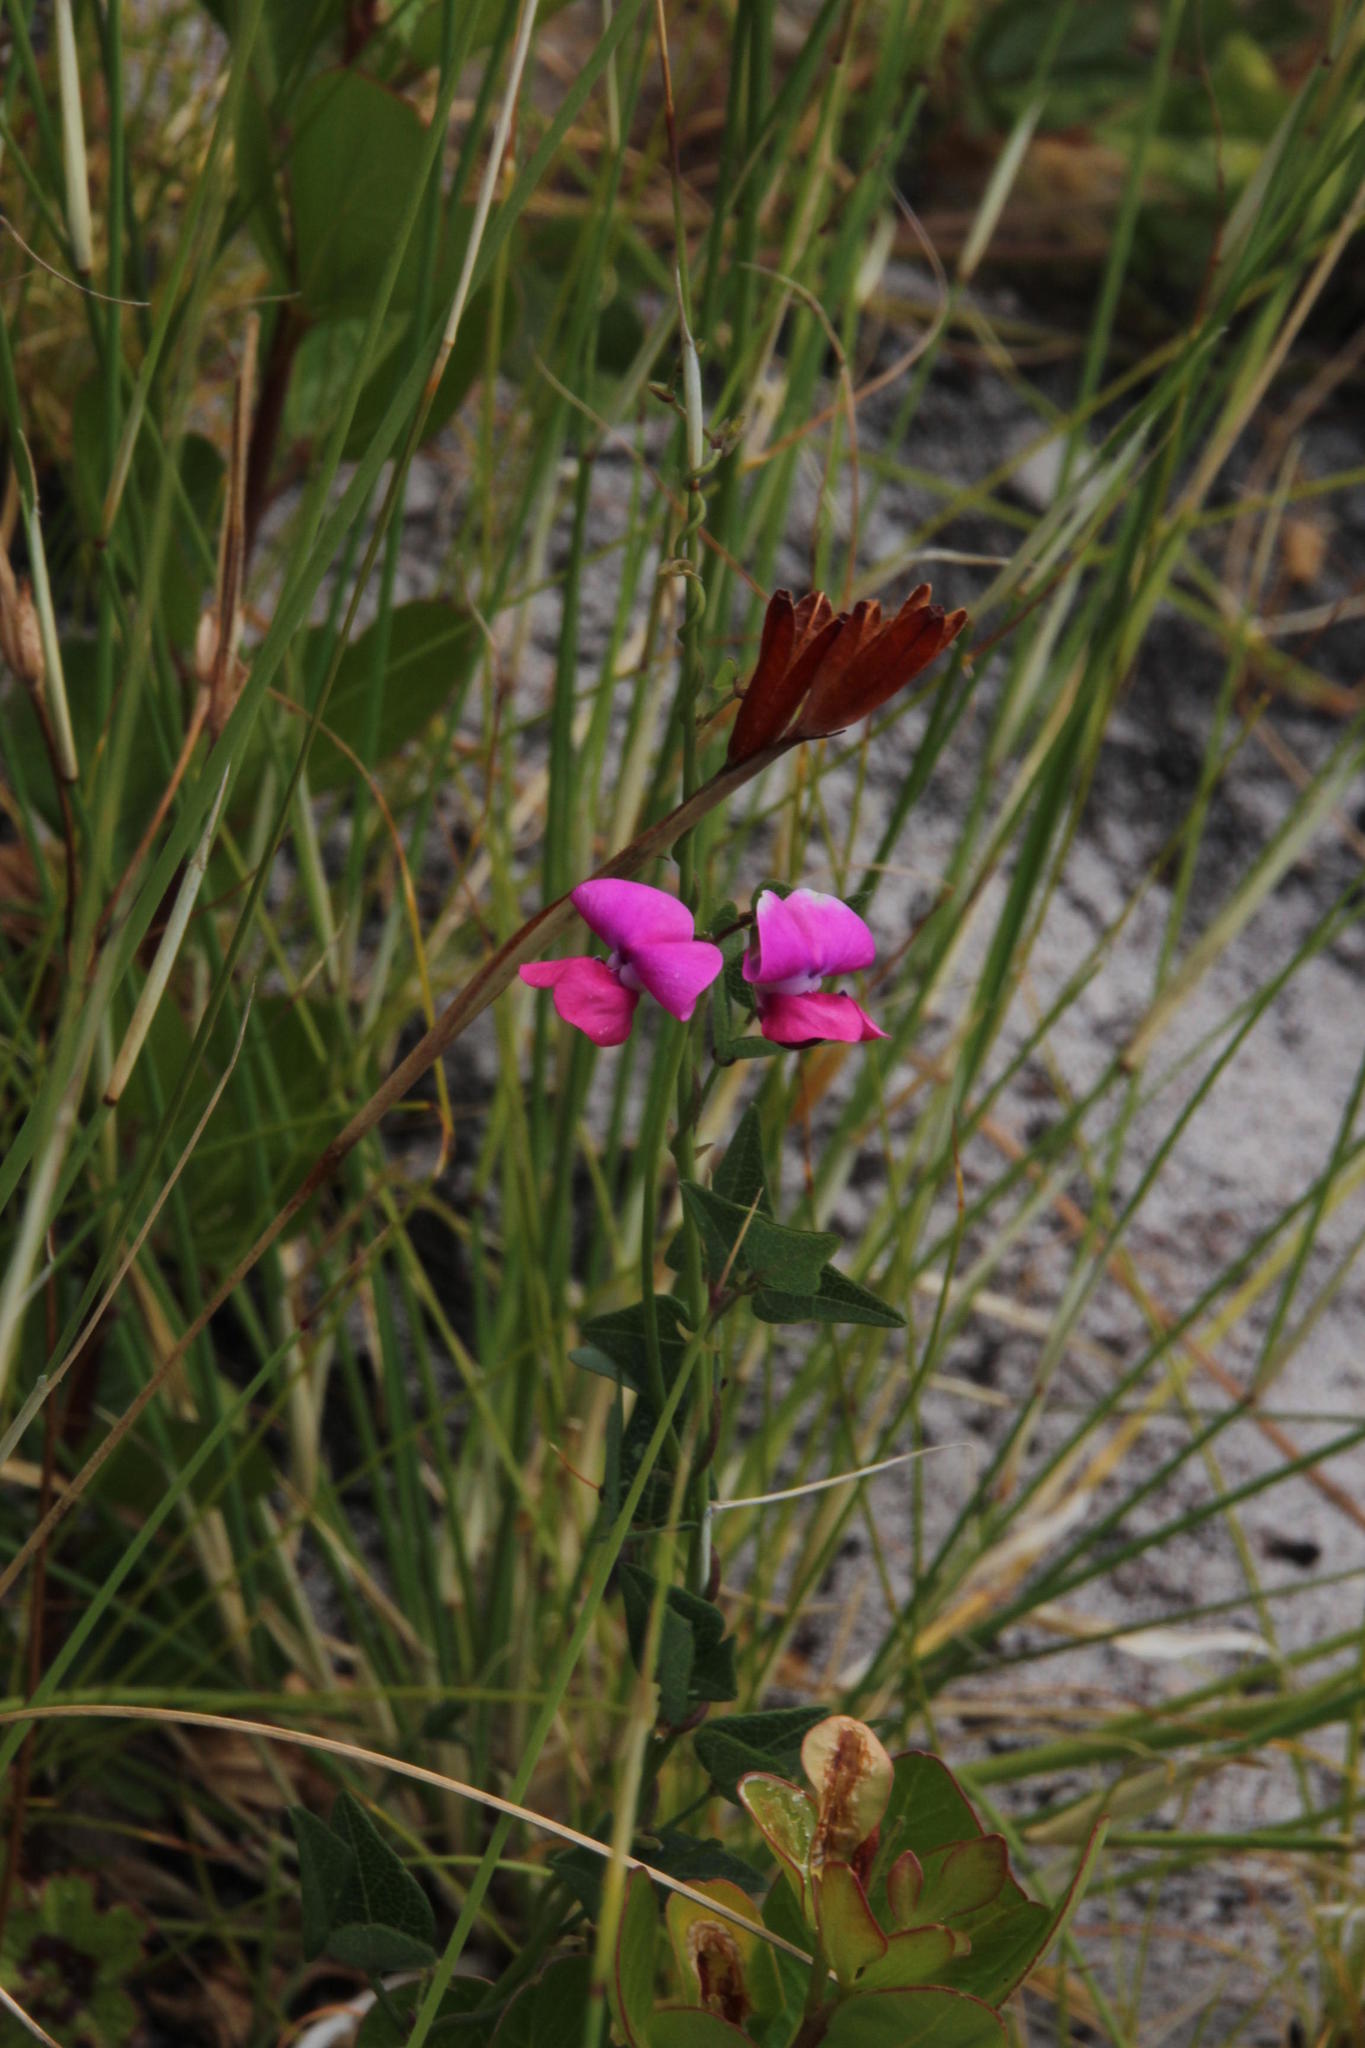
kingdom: Plantae
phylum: Tracheophyta
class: Magnoliopsida
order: Fabales
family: Fabaceae
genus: Dipogon
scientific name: Dipogon lignosus
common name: Okie bean
